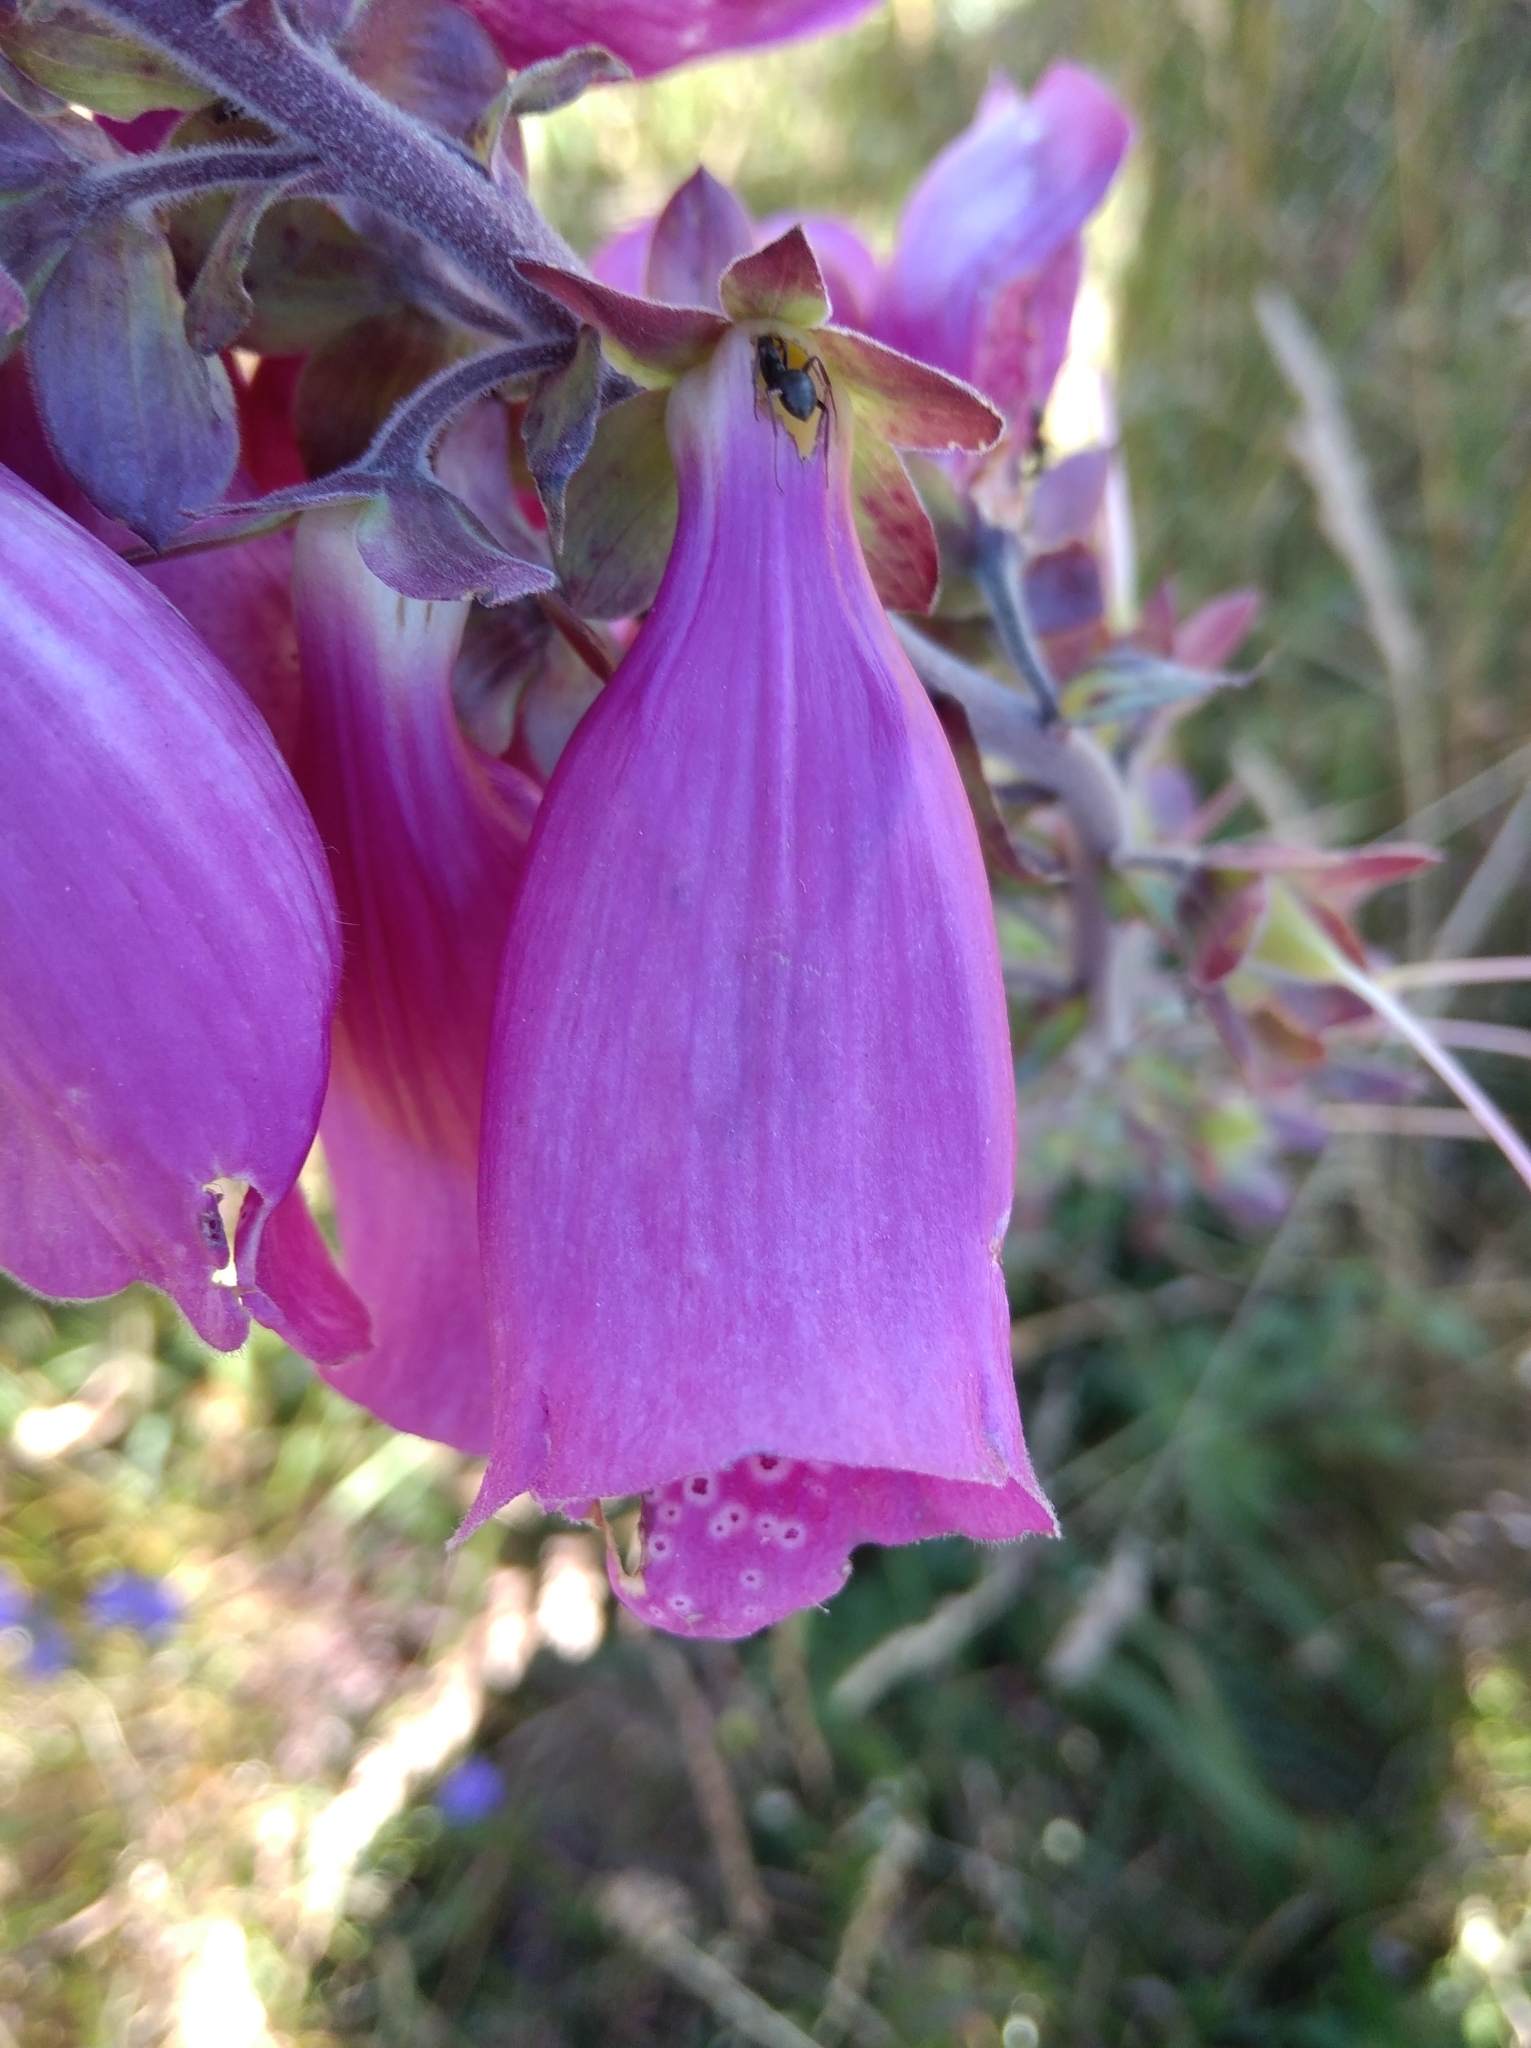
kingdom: Plantae
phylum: Tracheophyta
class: Magnoliopsida
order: Lamiales
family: Plantaginaceae
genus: Digitalis
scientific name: Digitalis purpurea
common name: Foxglove
